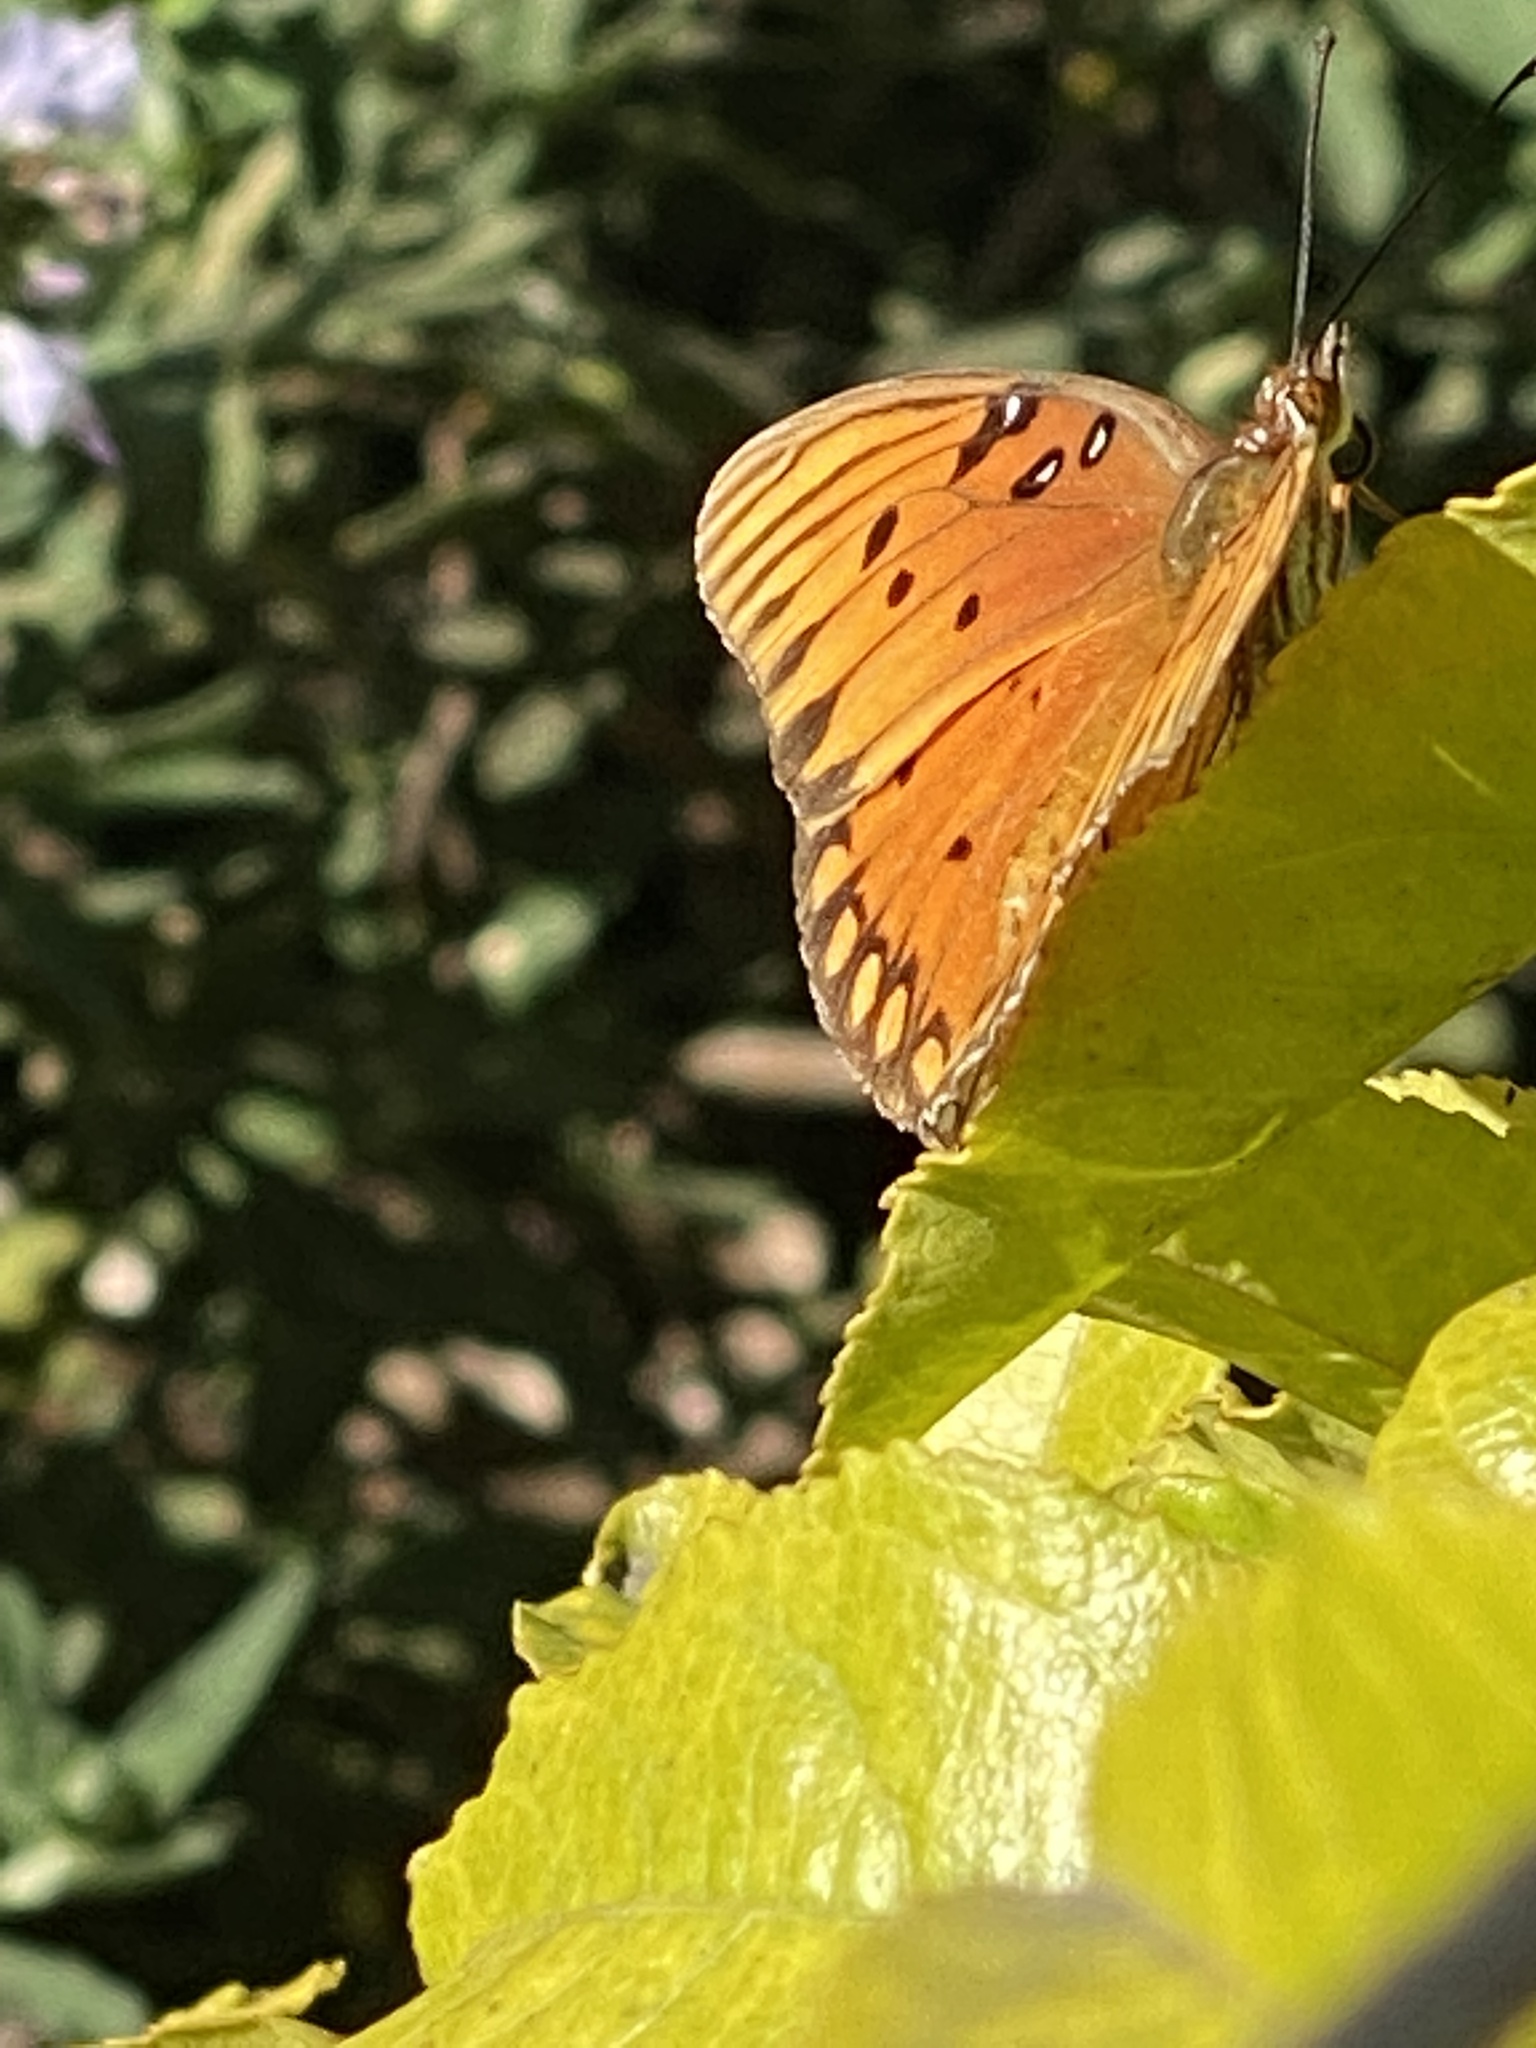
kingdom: Animalia
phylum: Arthropoda
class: Insecta
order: Lepidoptera
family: Nymphalidae
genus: Dione
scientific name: Dione vanillae
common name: Gulf fritillary
